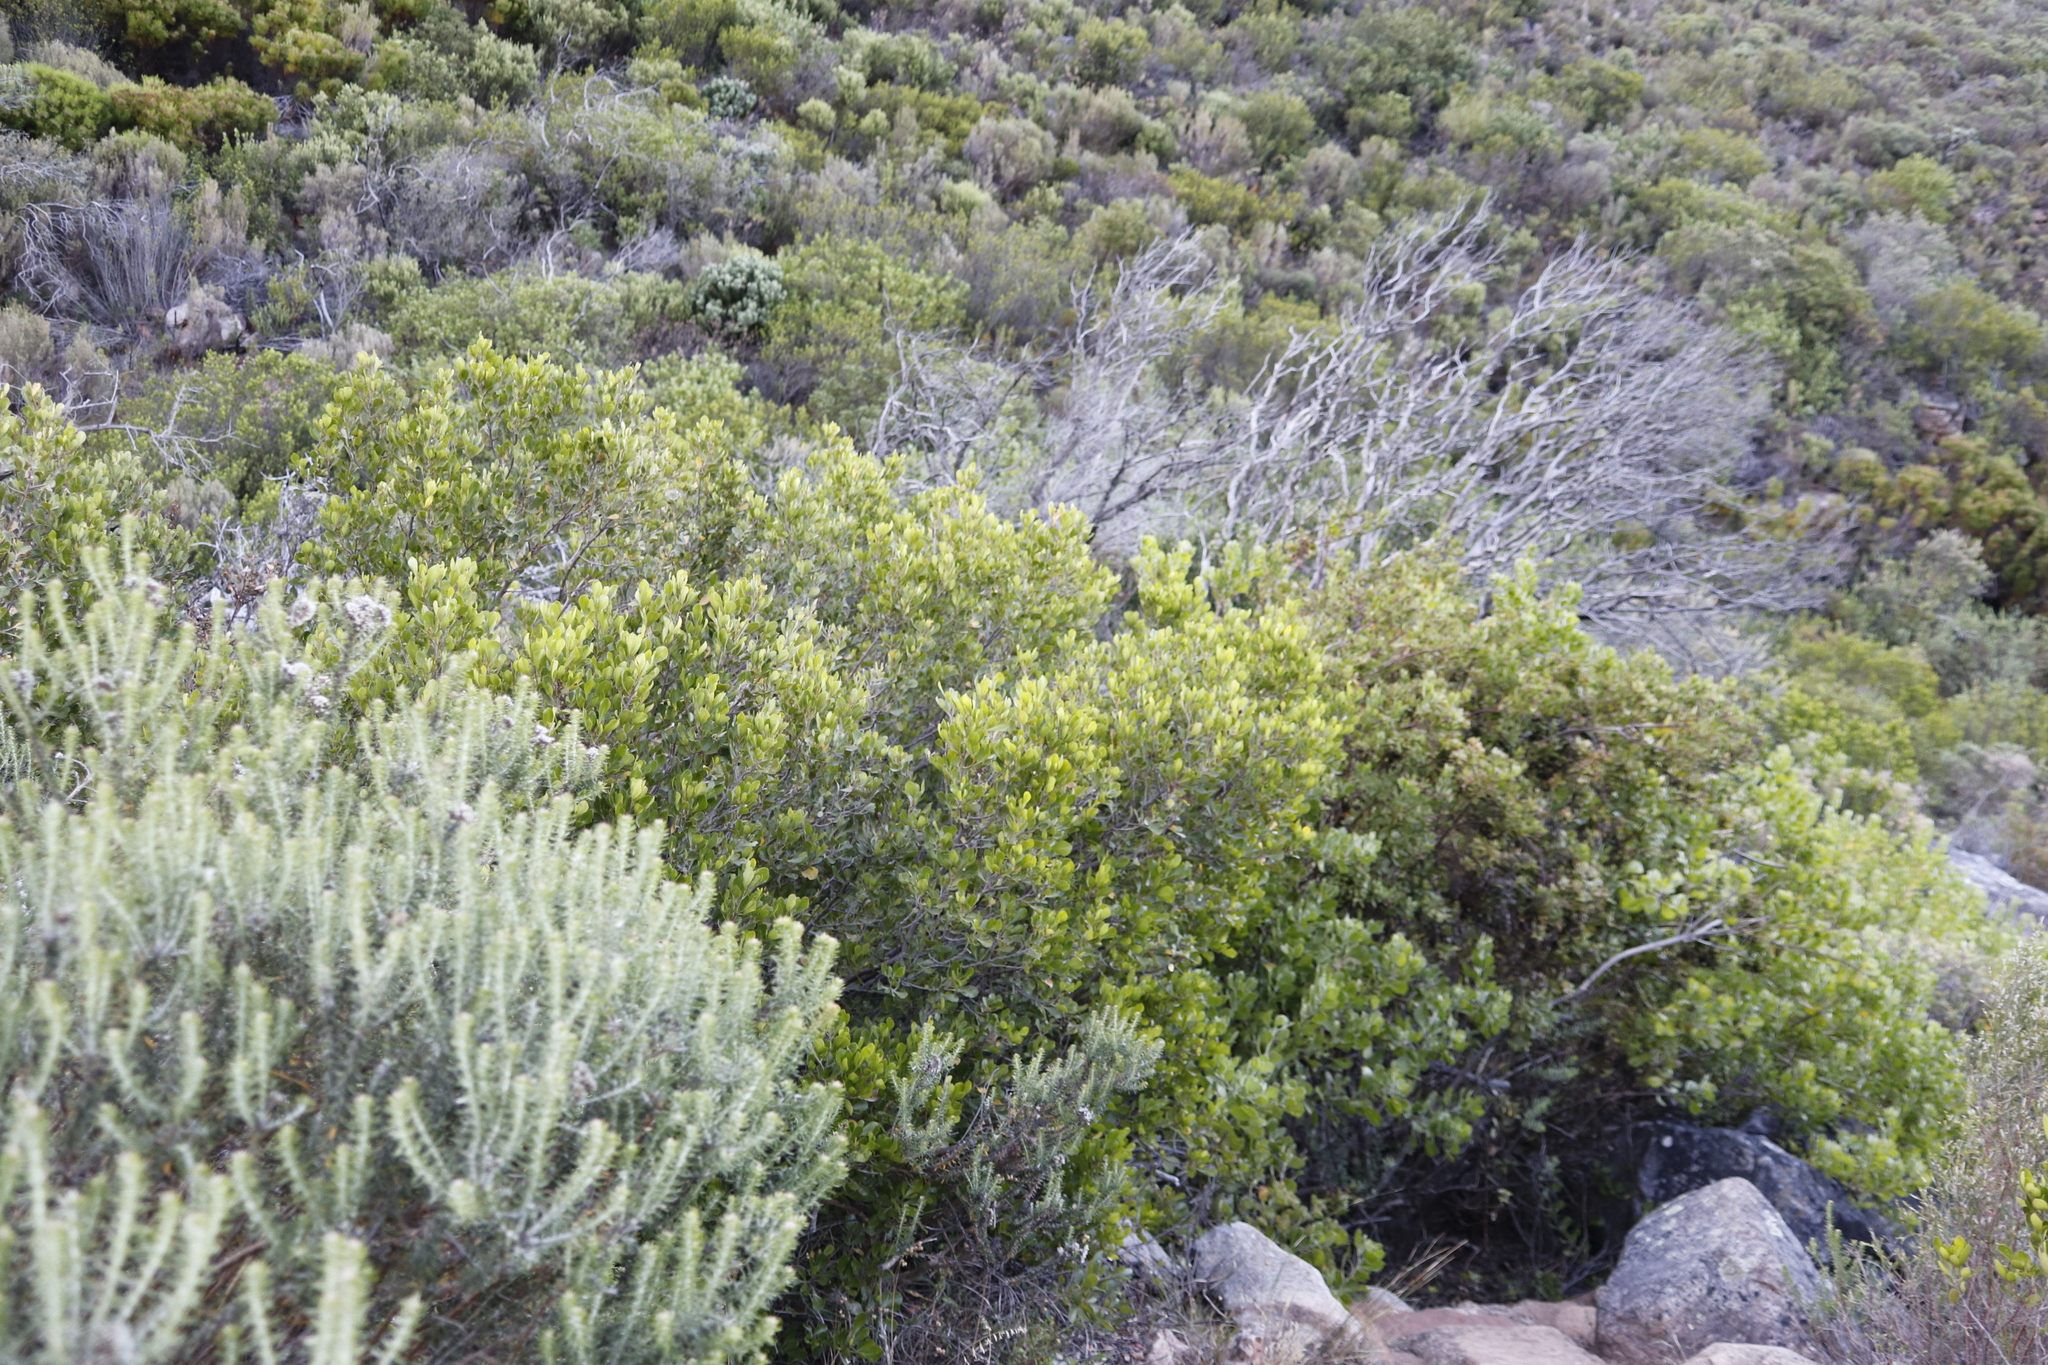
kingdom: Plantae
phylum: Tracheophyta
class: Magnoliopsida
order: Sapindales
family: Anacardiaceae
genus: Searsia
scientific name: Searsia lucida
